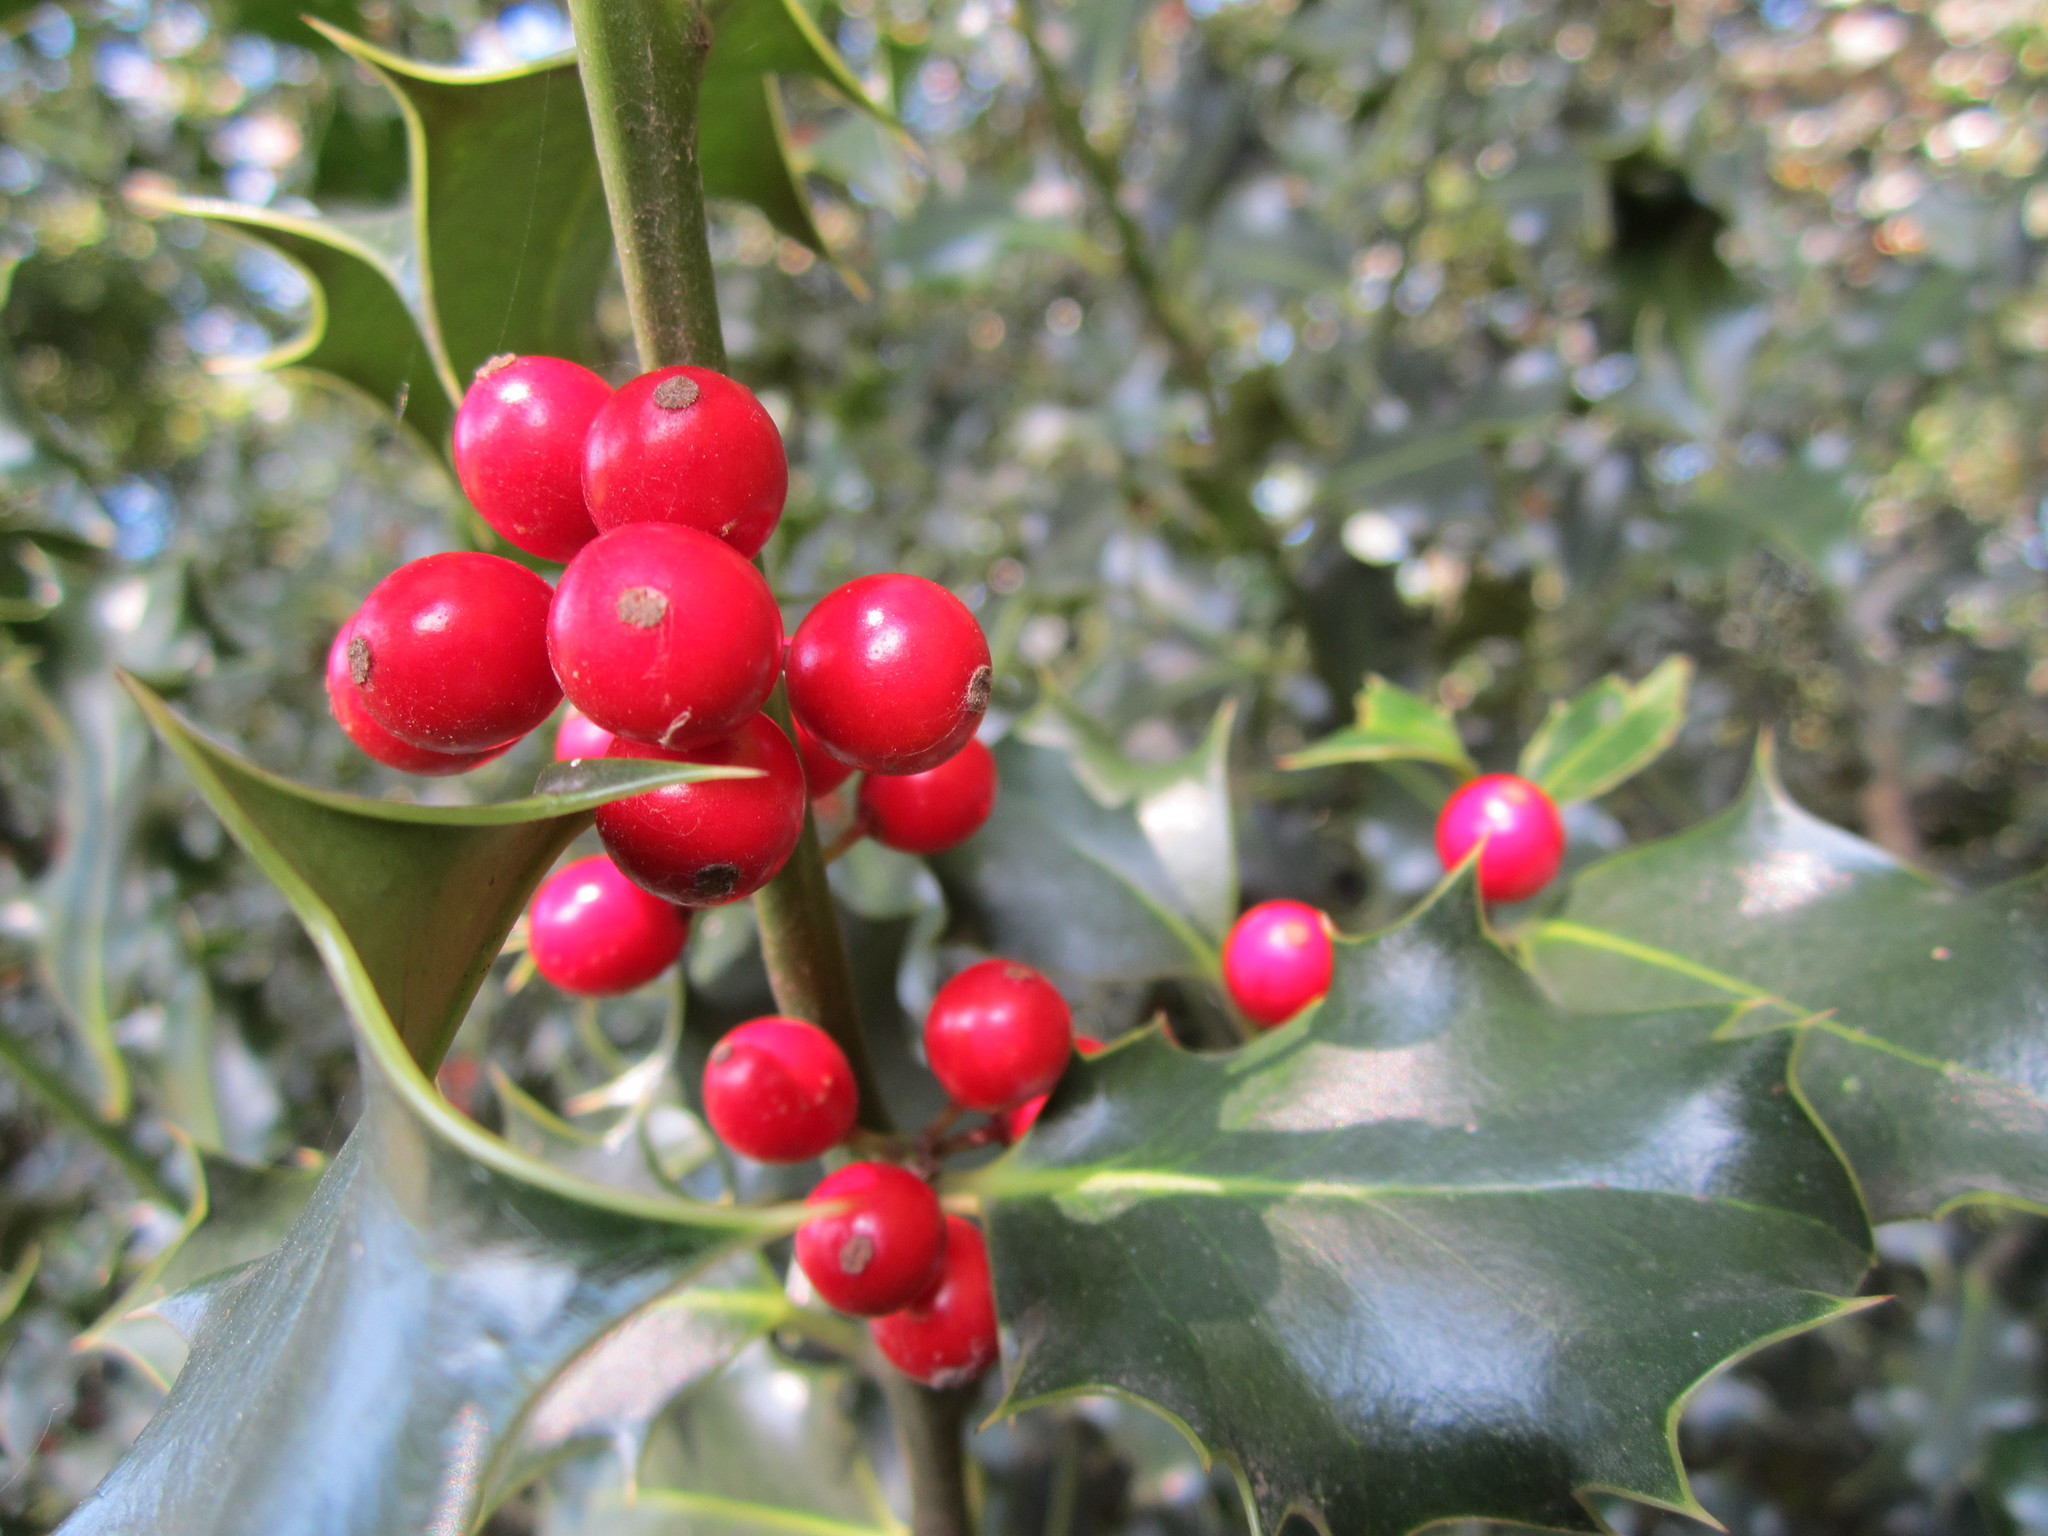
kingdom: Plantae
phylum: Tracheophyta
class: Magnoliopsida
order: Aquifoliales
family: Aquifoliaceae
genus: Ilex
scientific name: Ilex aquifolium
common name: English holly
